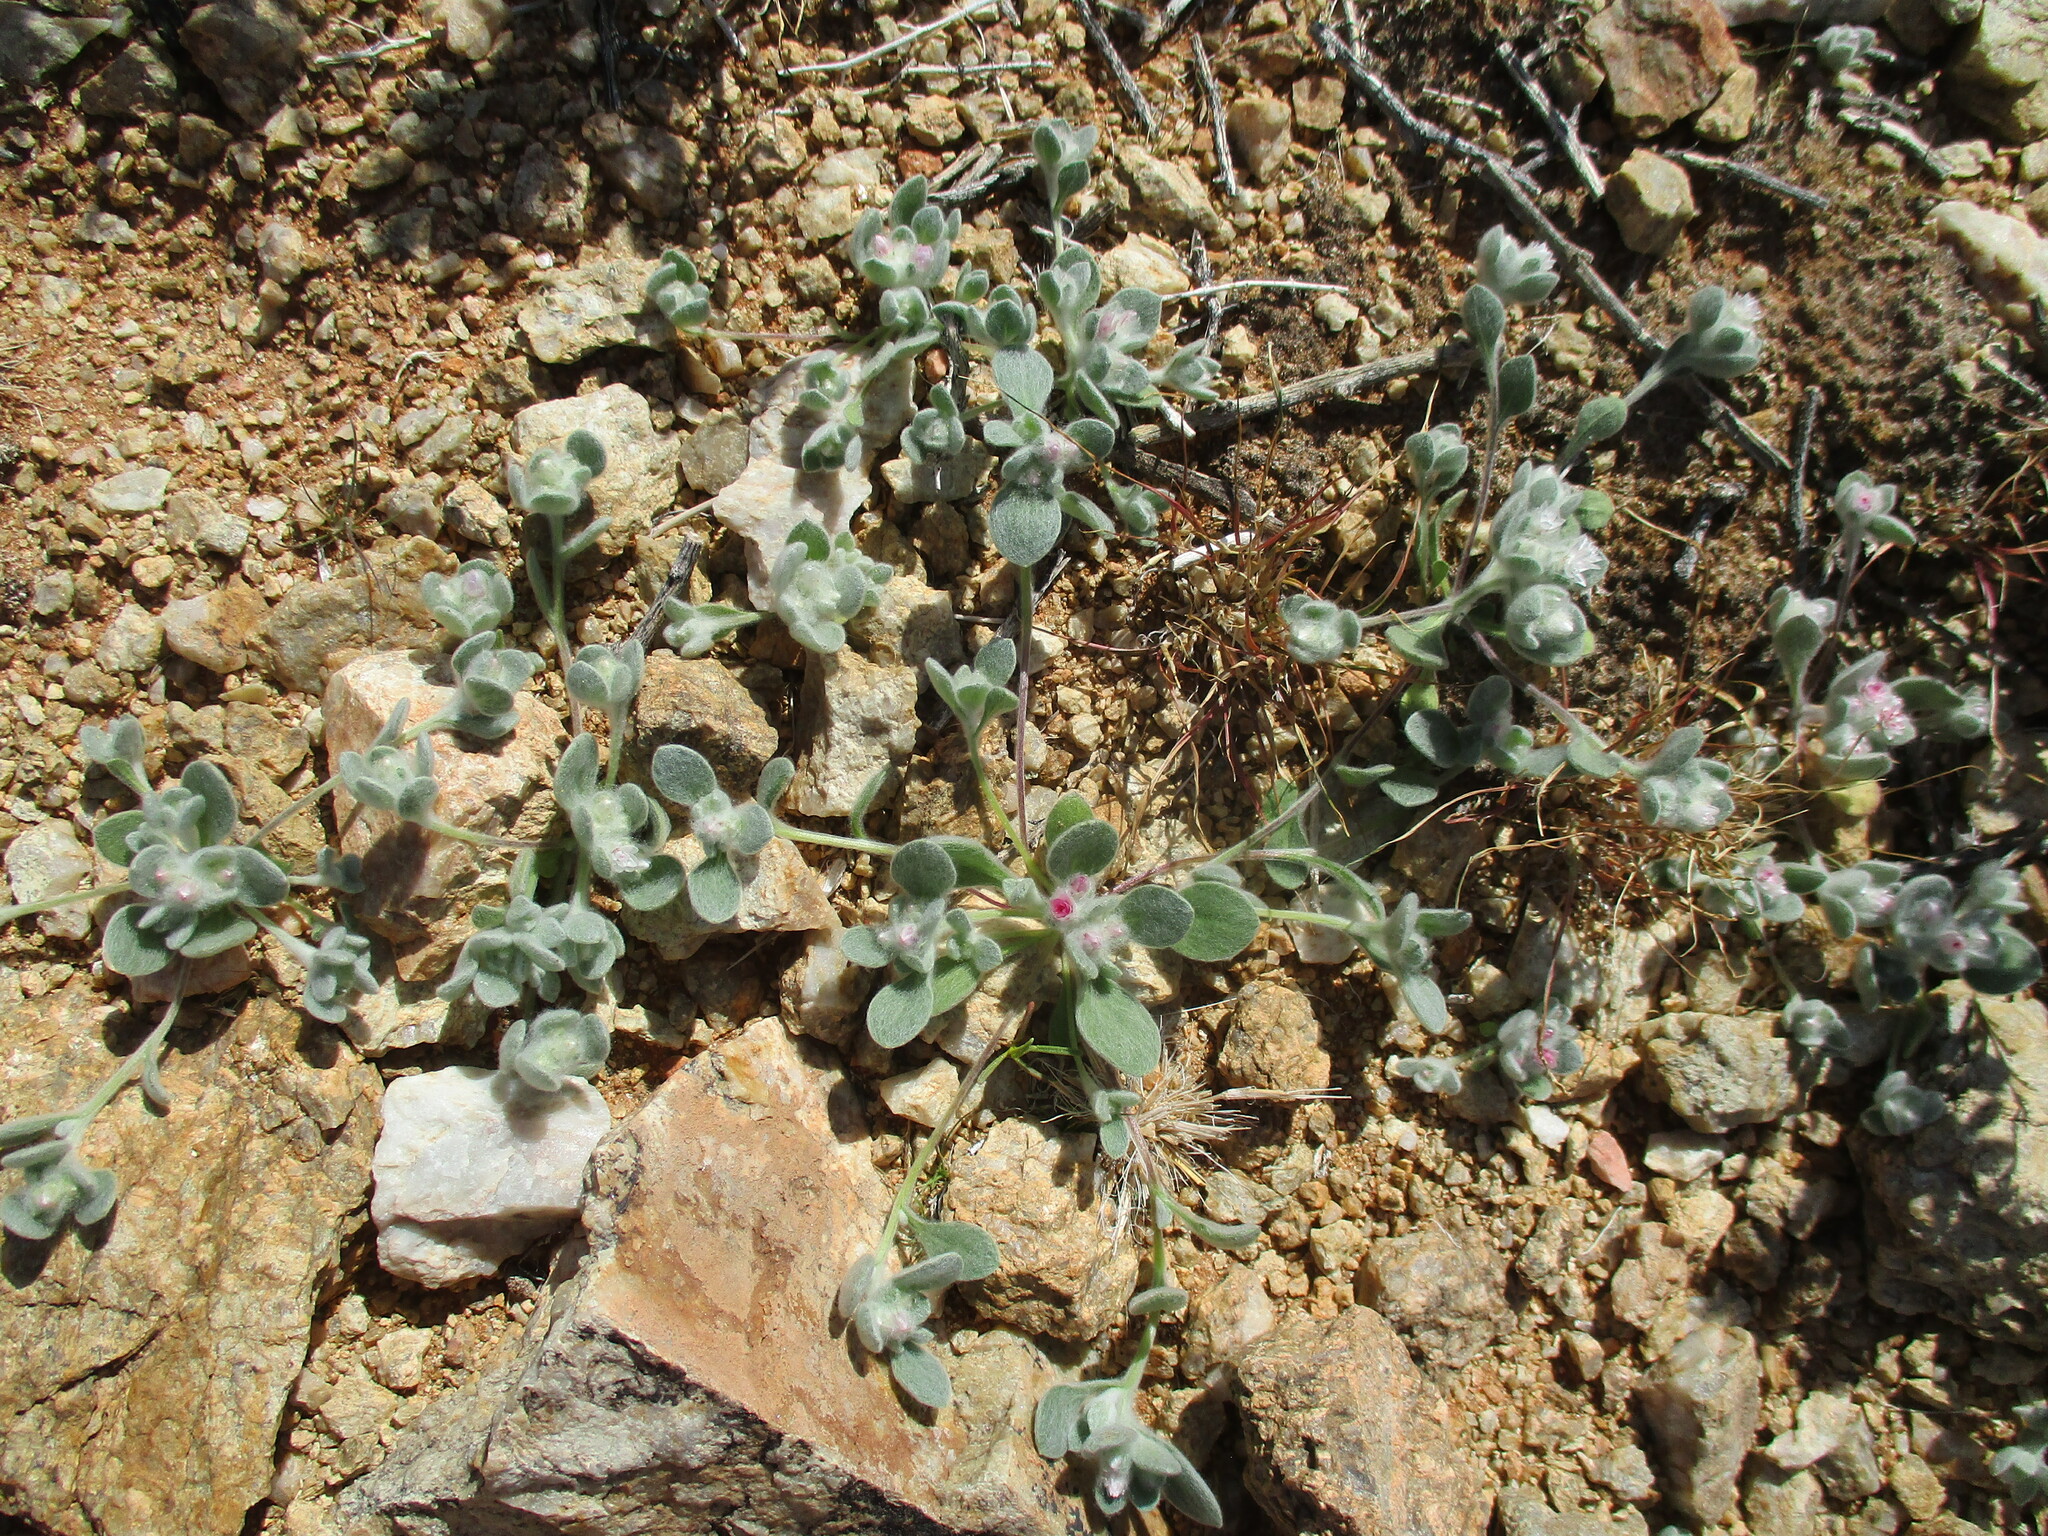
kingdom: Plantae
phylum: Tracheophyta
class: Magnoliopsida
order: Asterales
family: Asteraceae
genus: Helichrysum
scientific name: Helichrysum gariepinum
